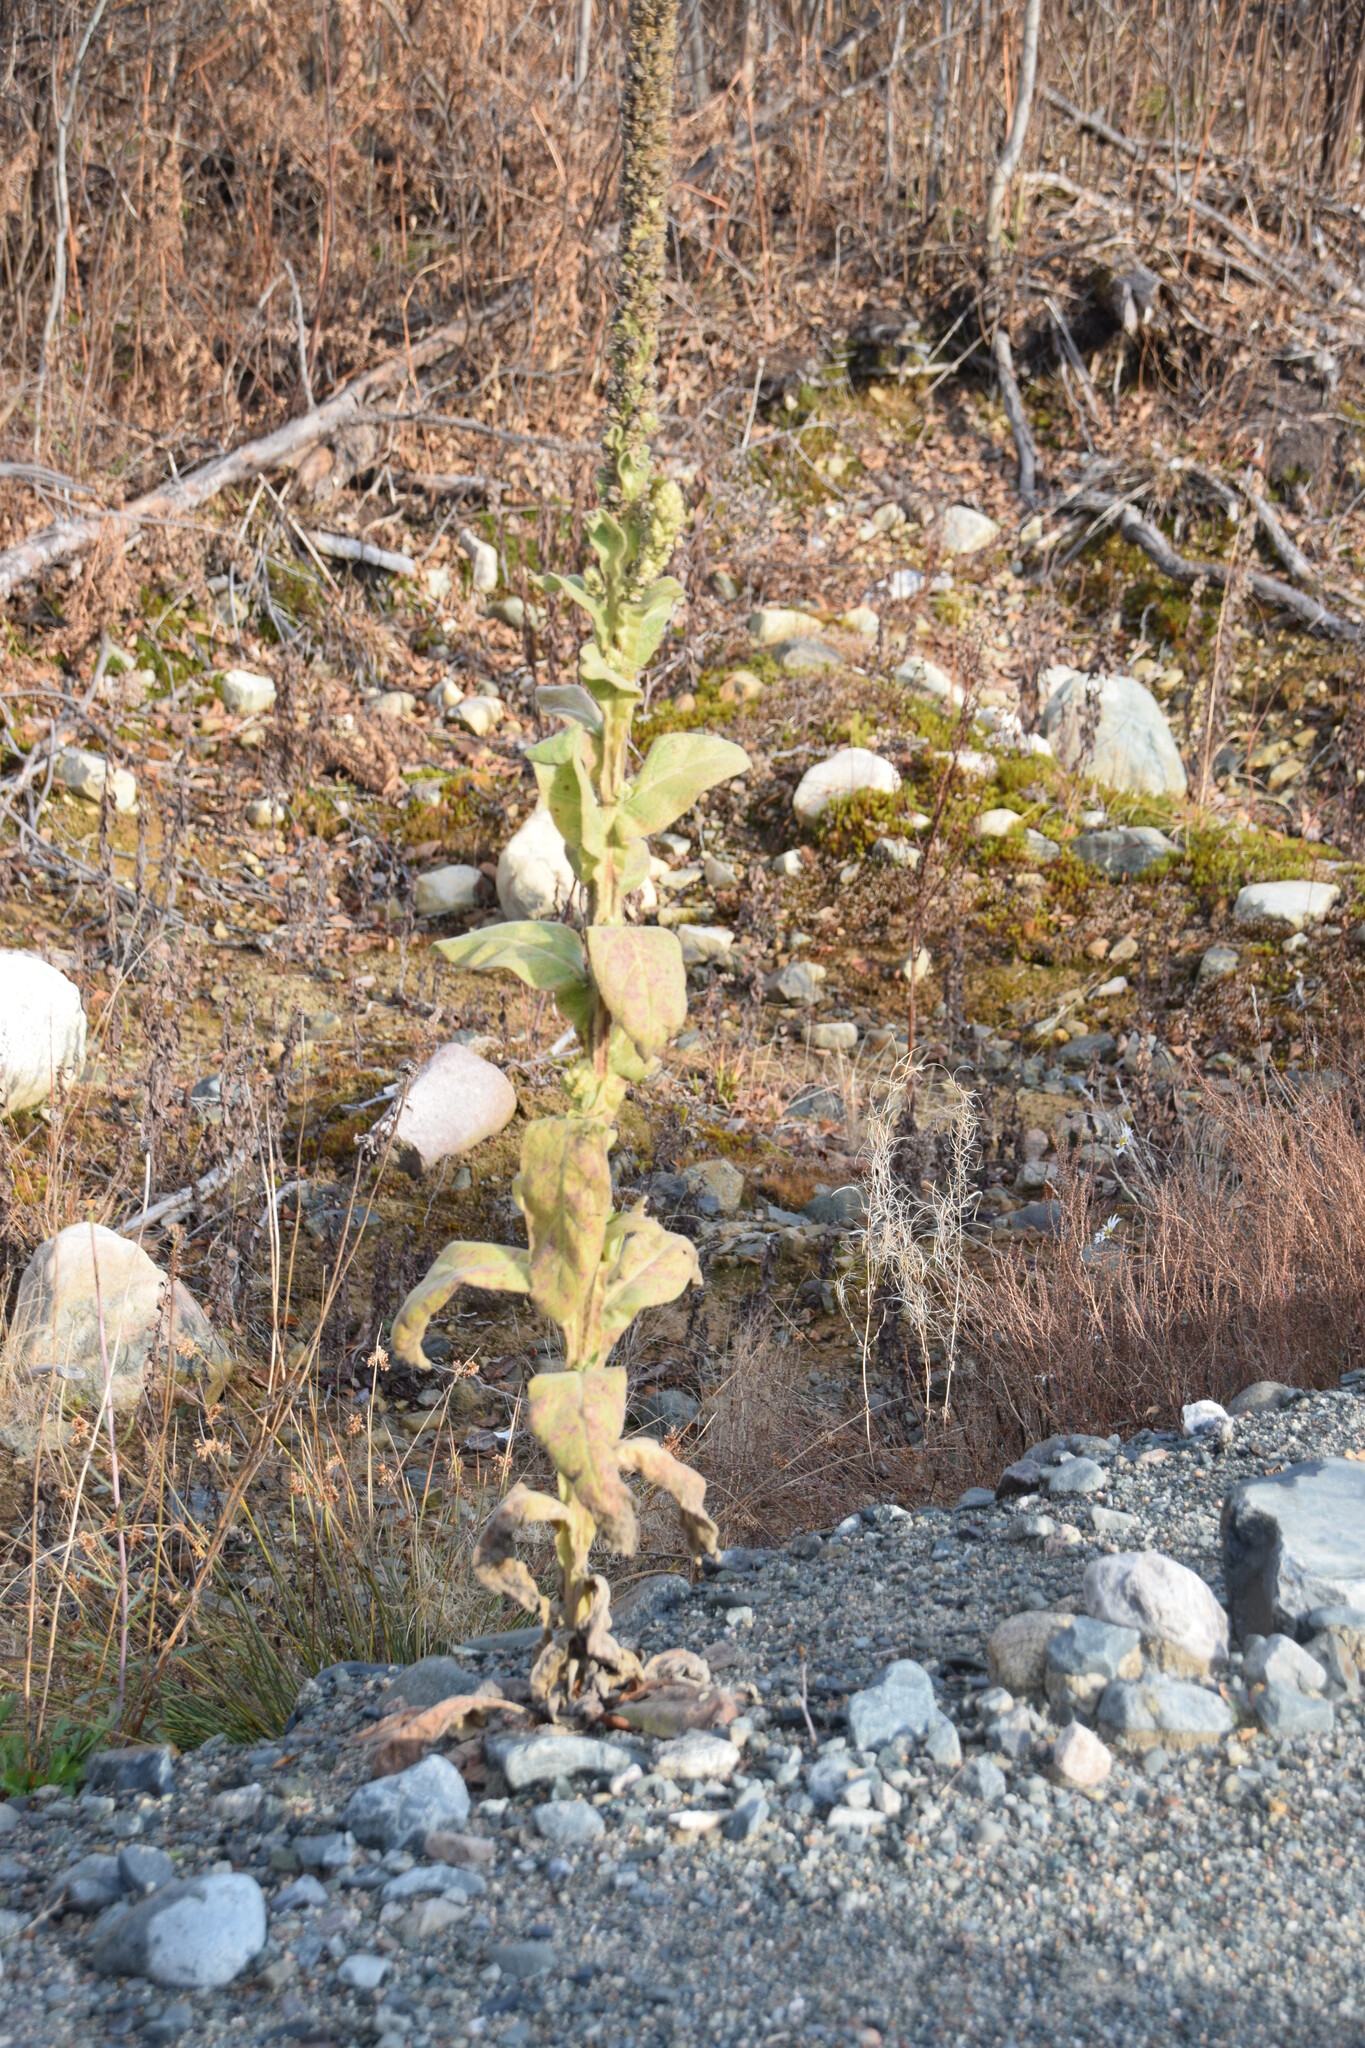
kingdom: Plantae
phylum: Tracheophyta
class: Magnoliopsida
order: Lamiales
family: Scrophulariaceae
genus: Verbascum
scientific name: Verbascum thapsus
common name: Common mullein
